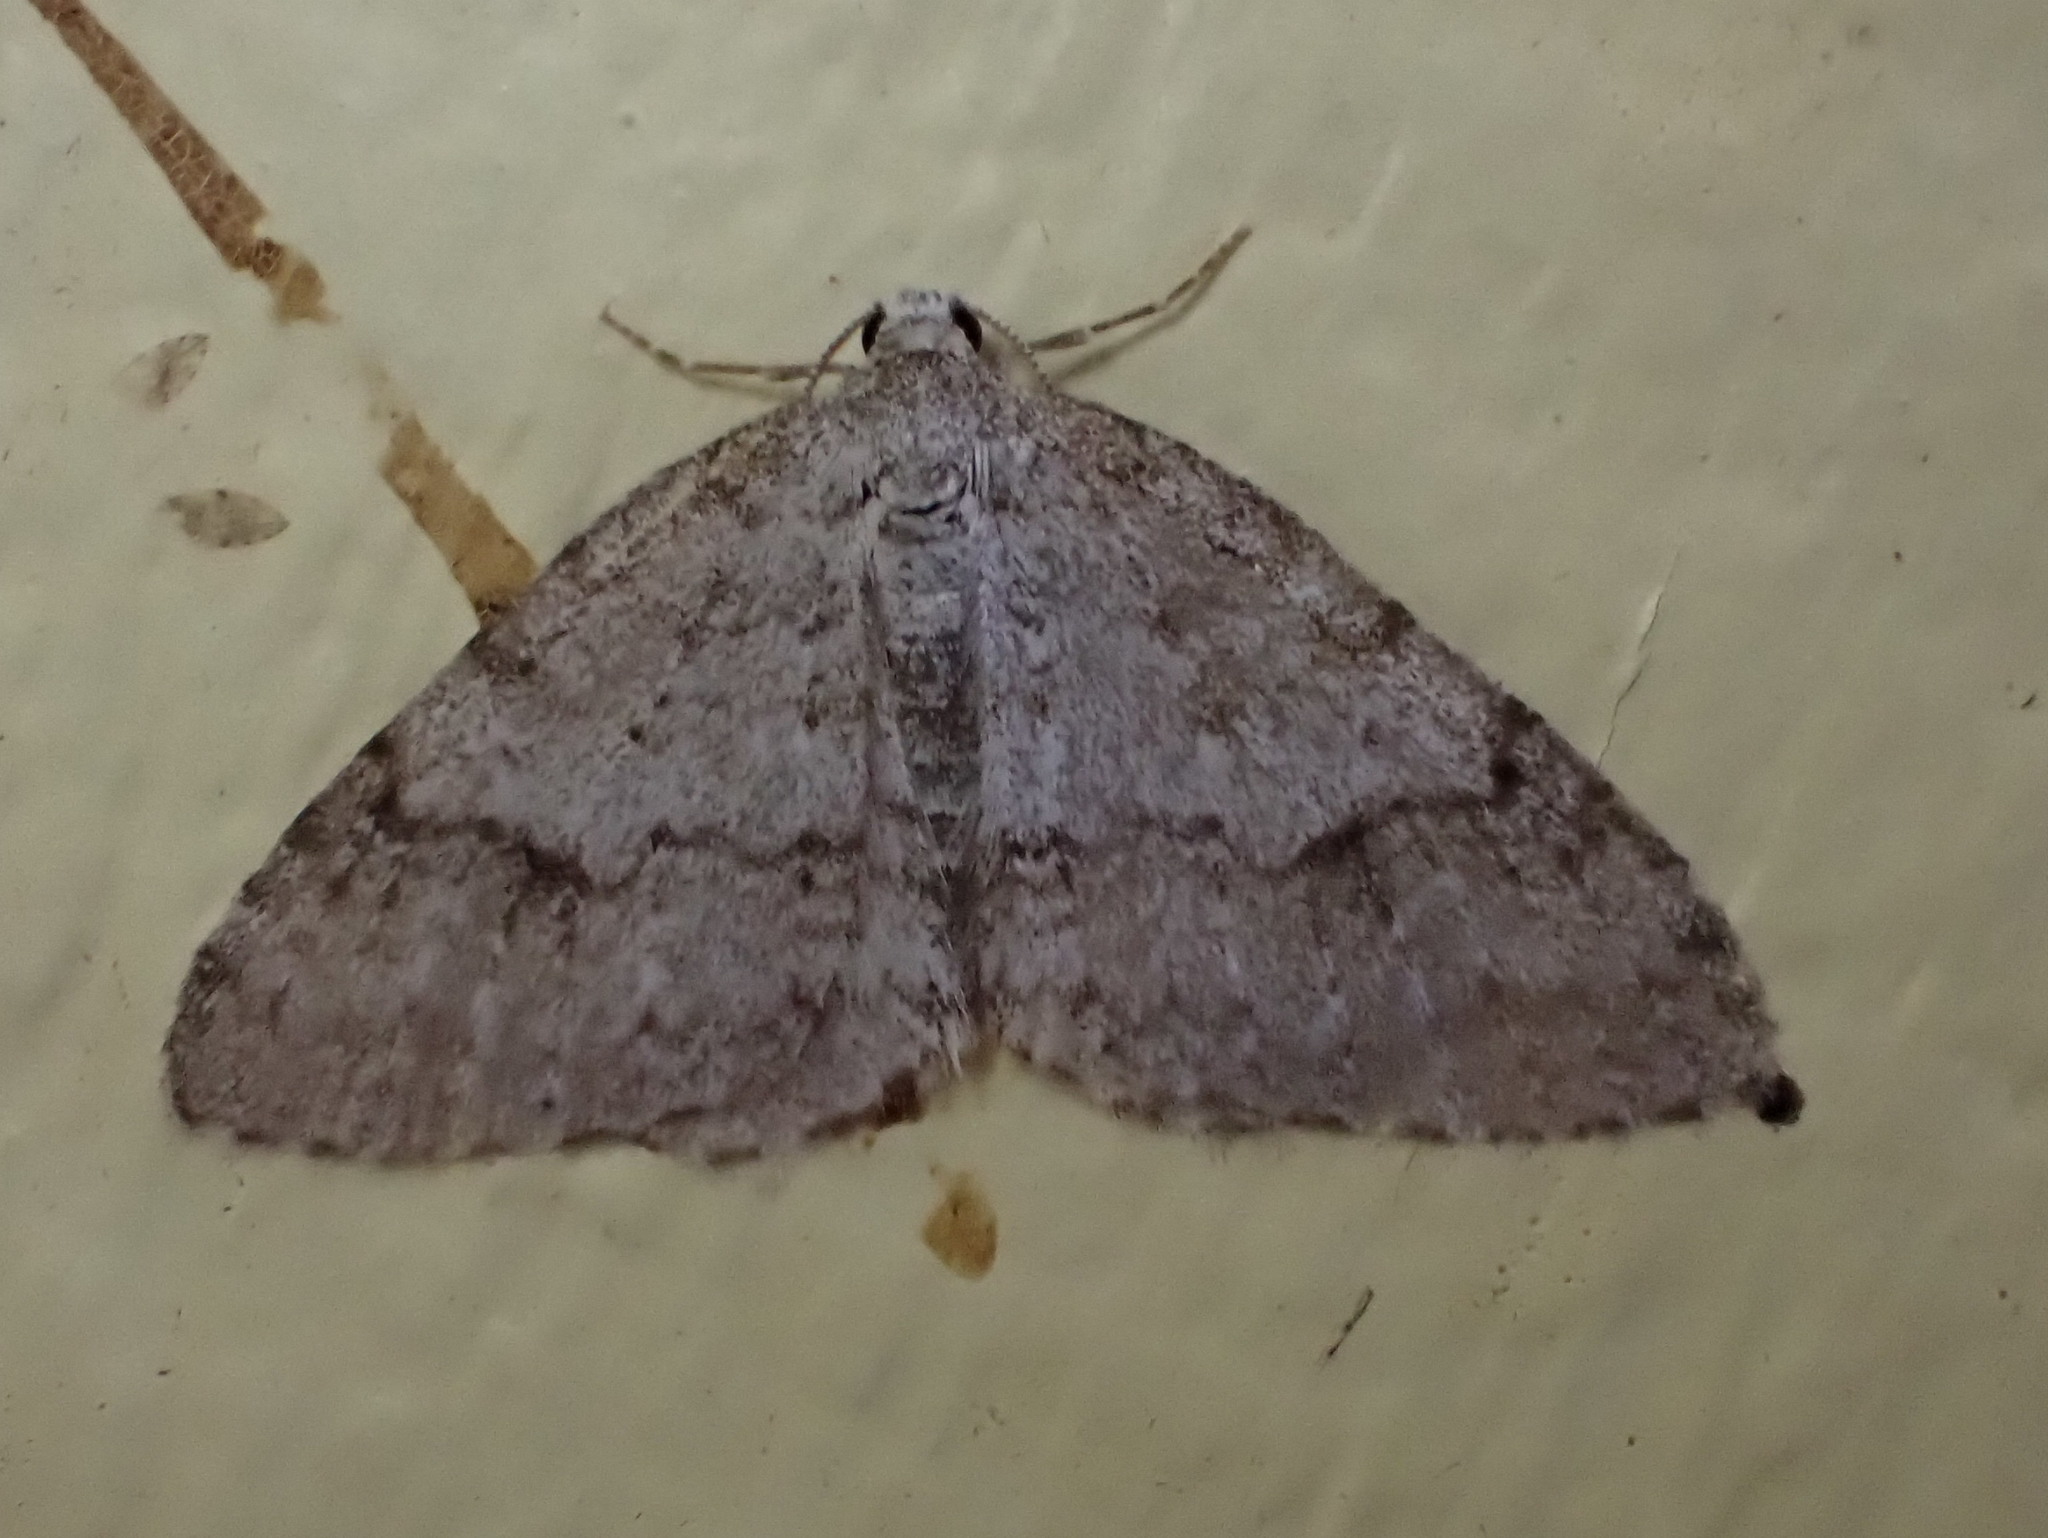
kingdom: Animalia
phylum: Arthropoda
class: Insecta
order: Lepidoptera
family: Geometridae
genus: Venusia
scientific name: Venusia comptaria
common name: Brown-shaded carpet
